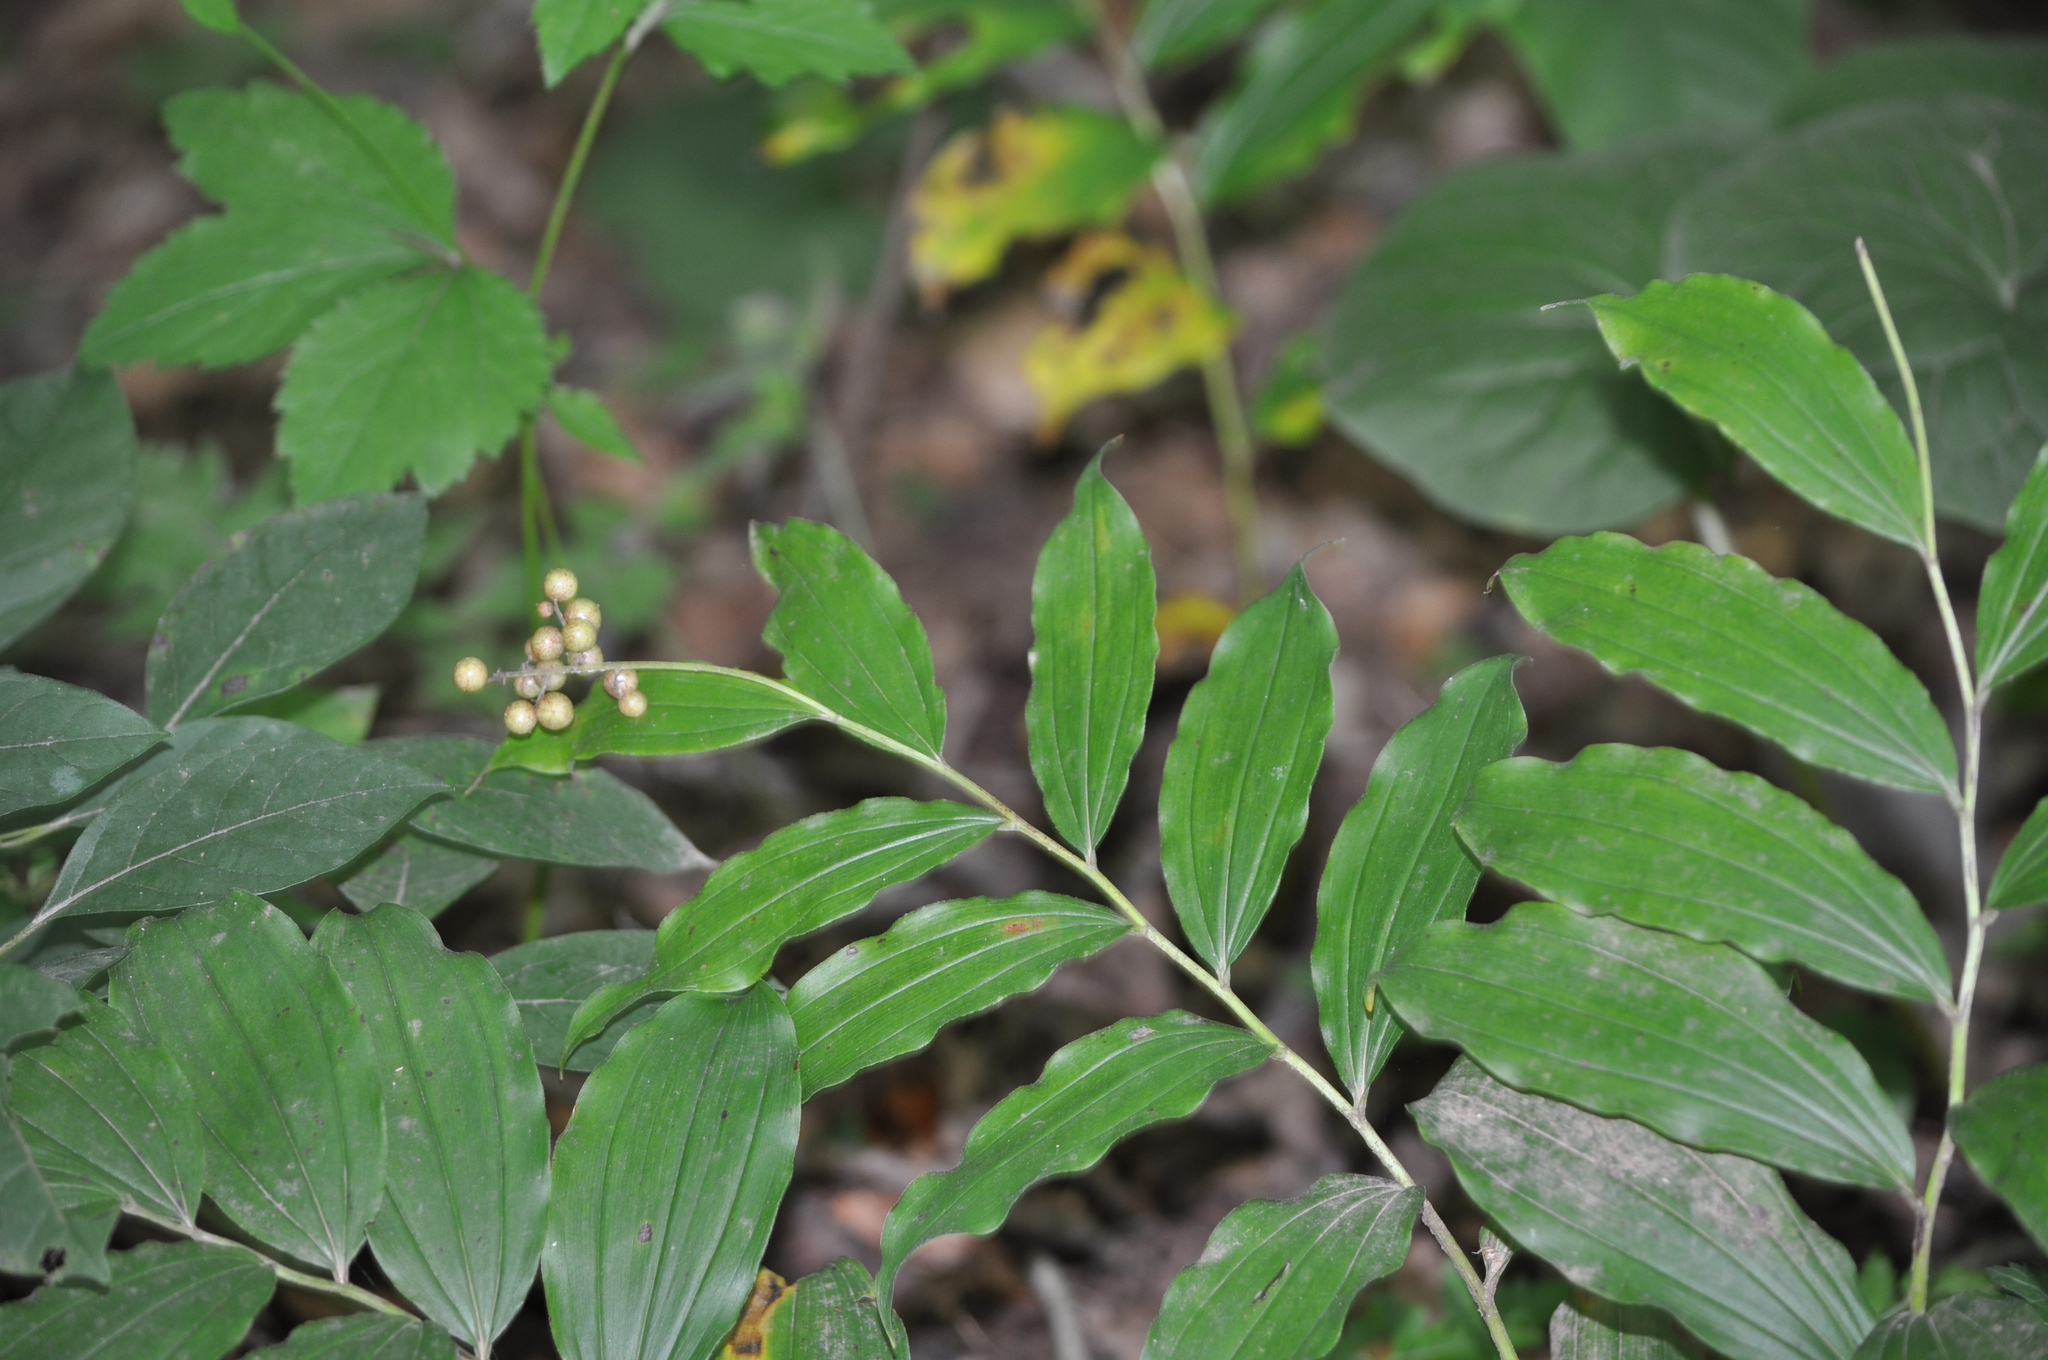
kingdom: Plantae
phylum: Tracheophyta
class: Liliopsida
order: Asparagales
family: Asparagaceae
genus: Maianthemum
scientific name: Maianthemum racemosum
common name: False spikenard
